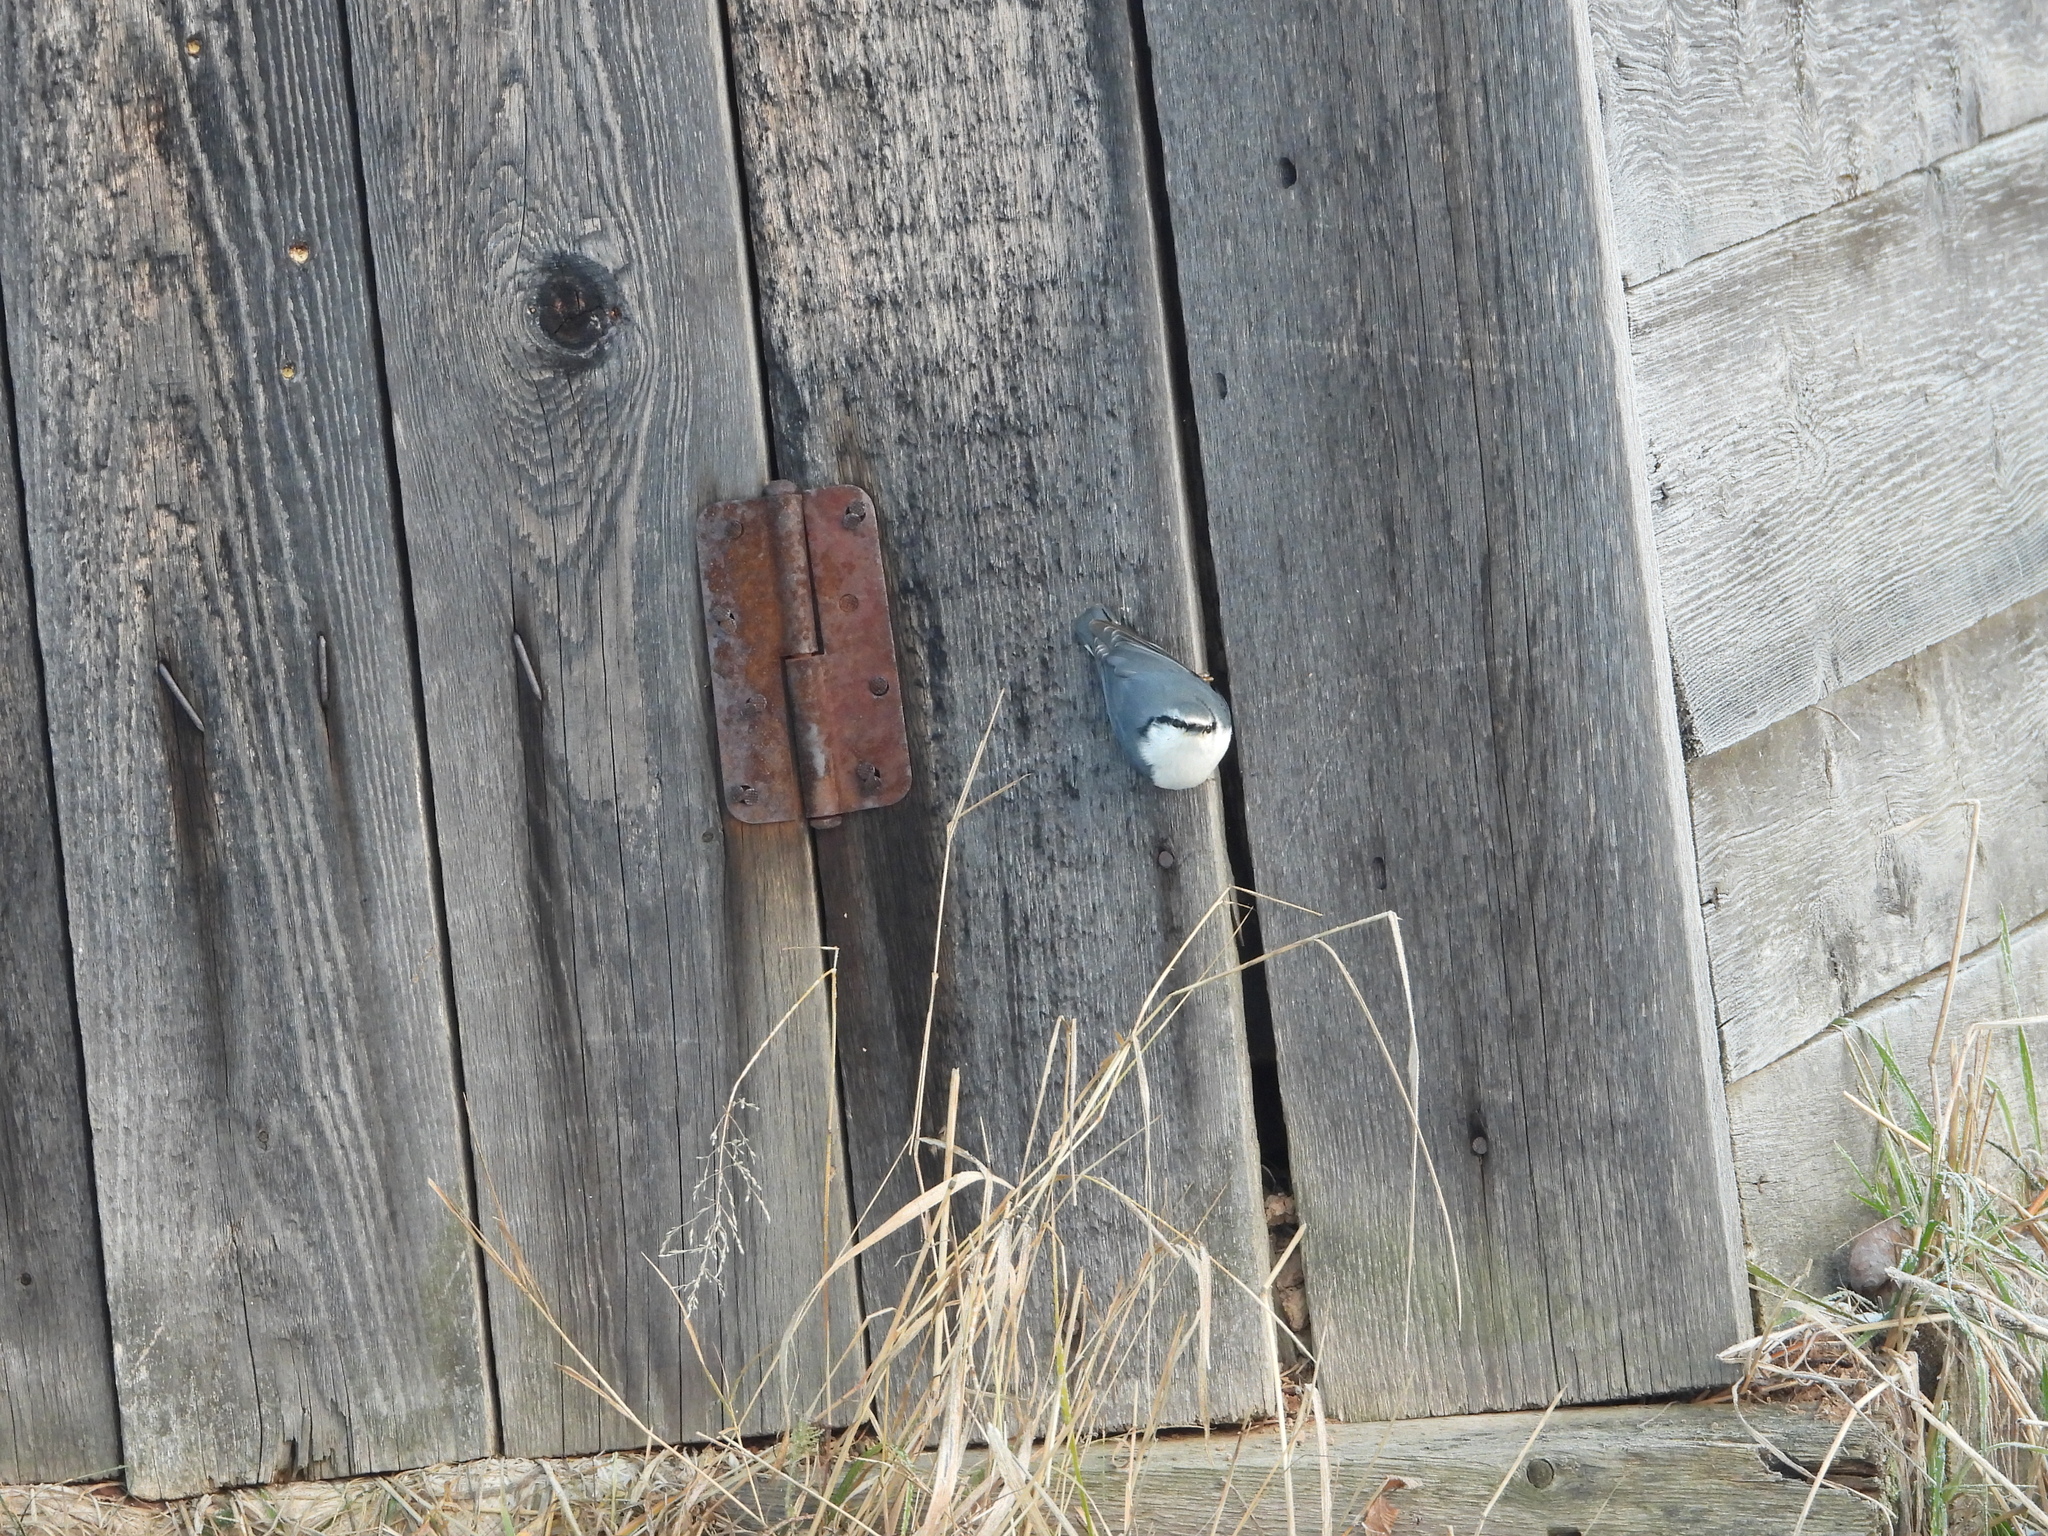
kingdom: Animalia
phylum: Chordata
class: Aves
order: Passeriformes
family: Sittidae
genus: Sitta
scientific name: Sitta europaea
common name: Eurasian nuthatch
